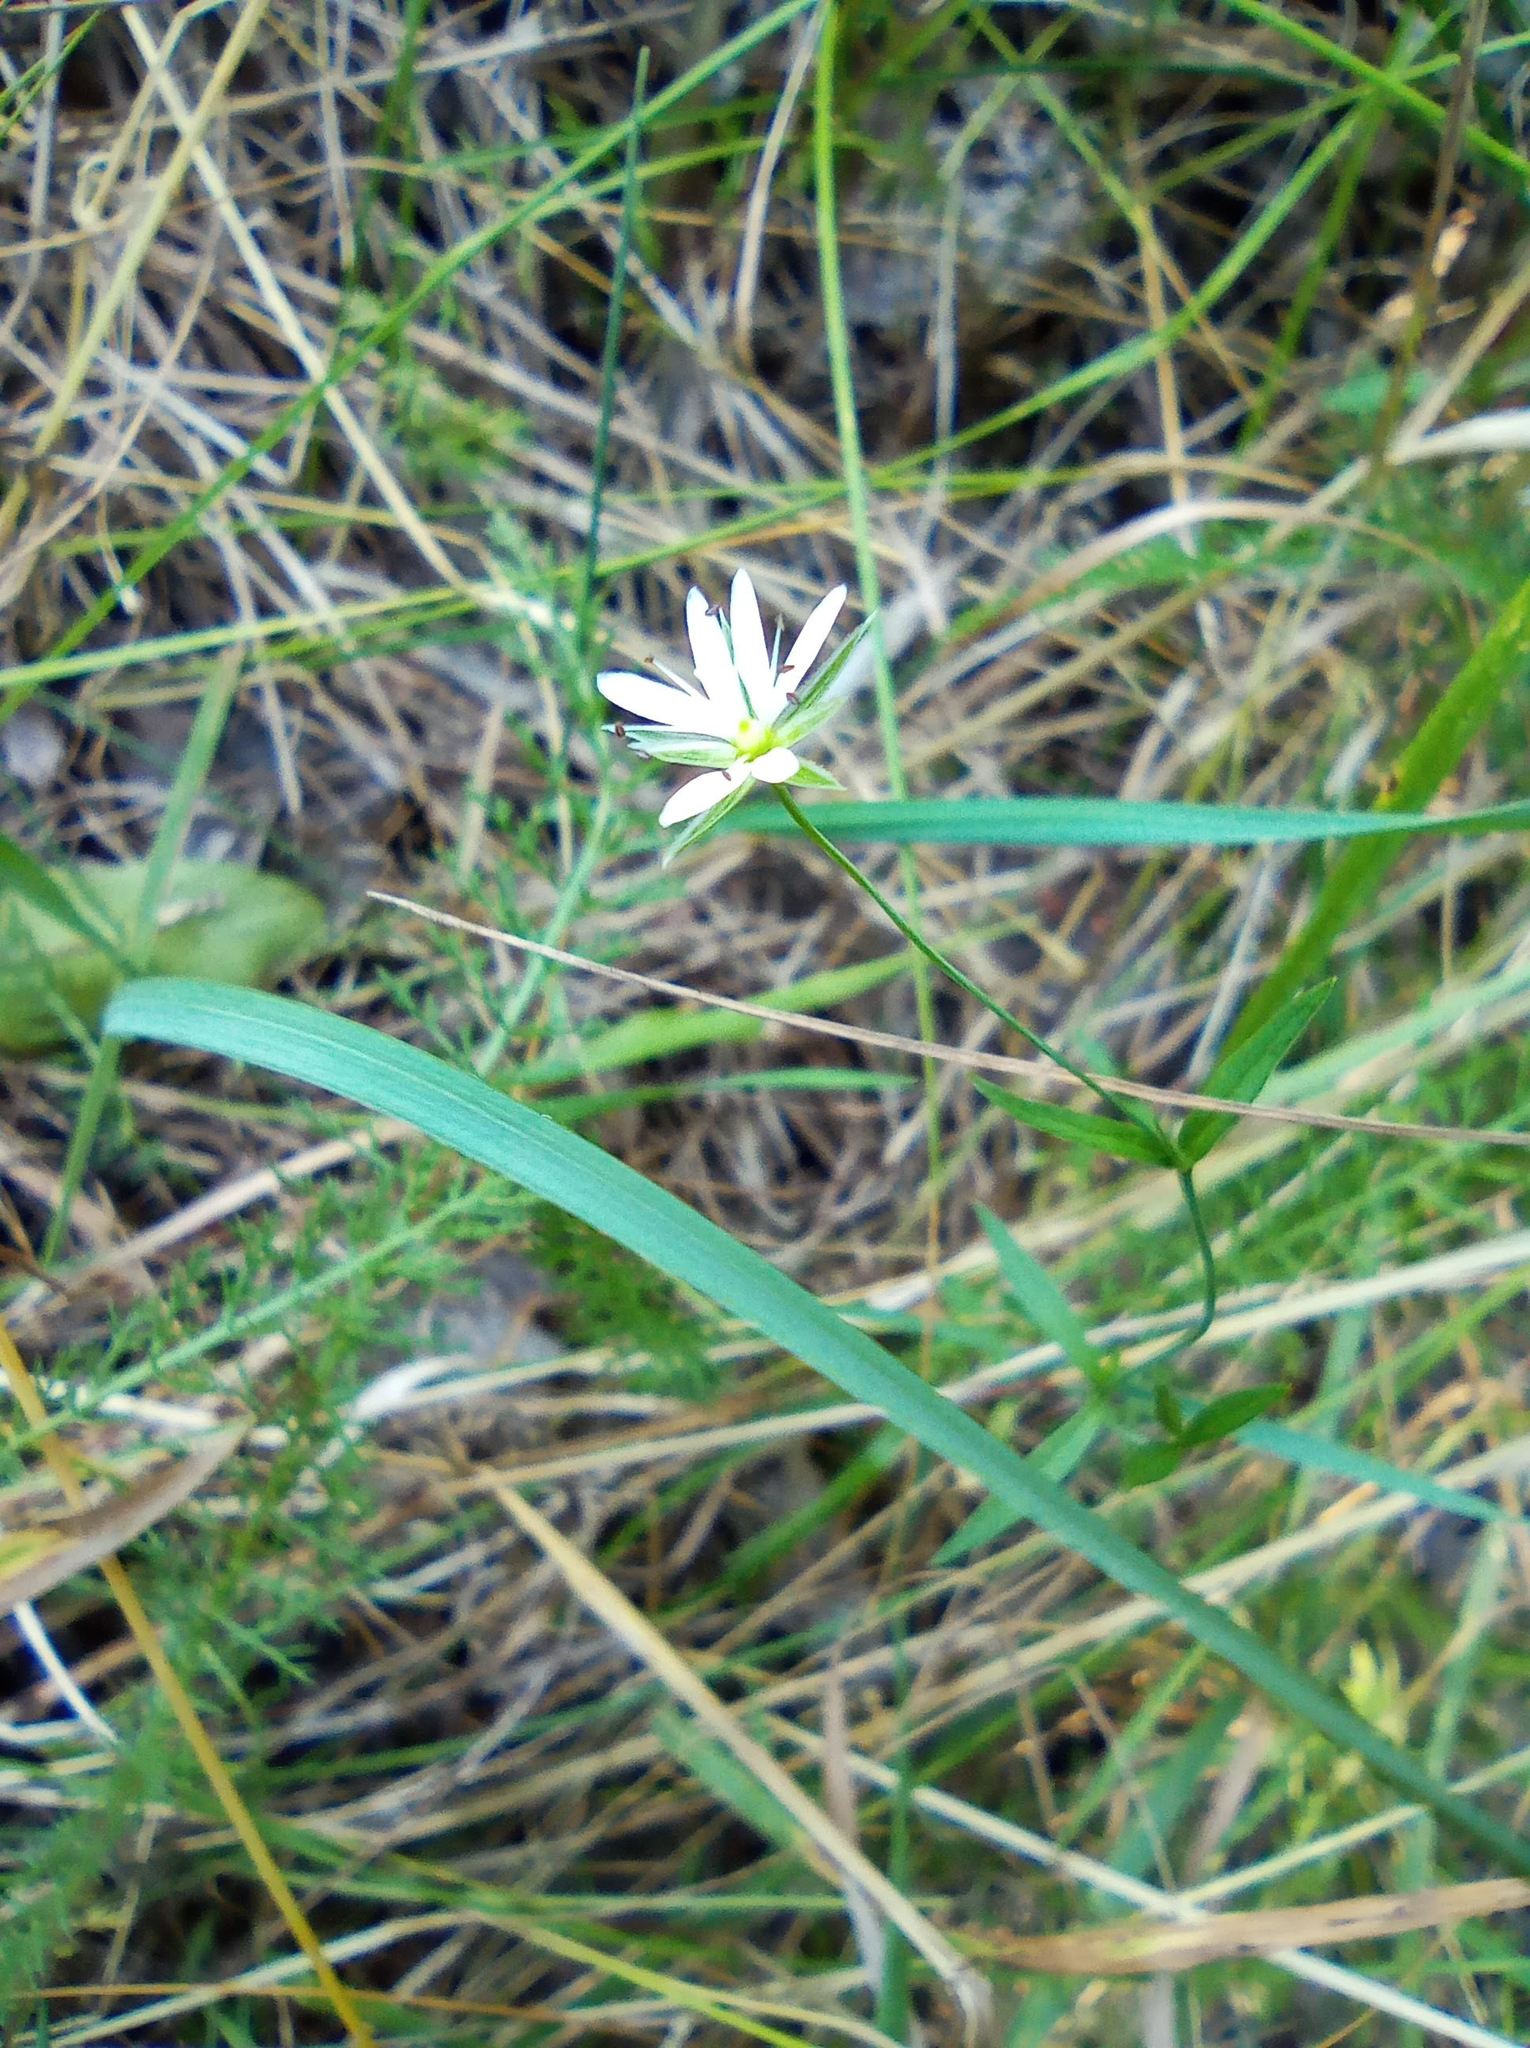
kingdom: Plantae
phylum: Tracheophyta
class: Magnoliopsida
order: Caryophyllales
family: Caryophyllaceae
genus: Stellaria
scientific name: Stellaria graminea
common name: Grass-like starwort
